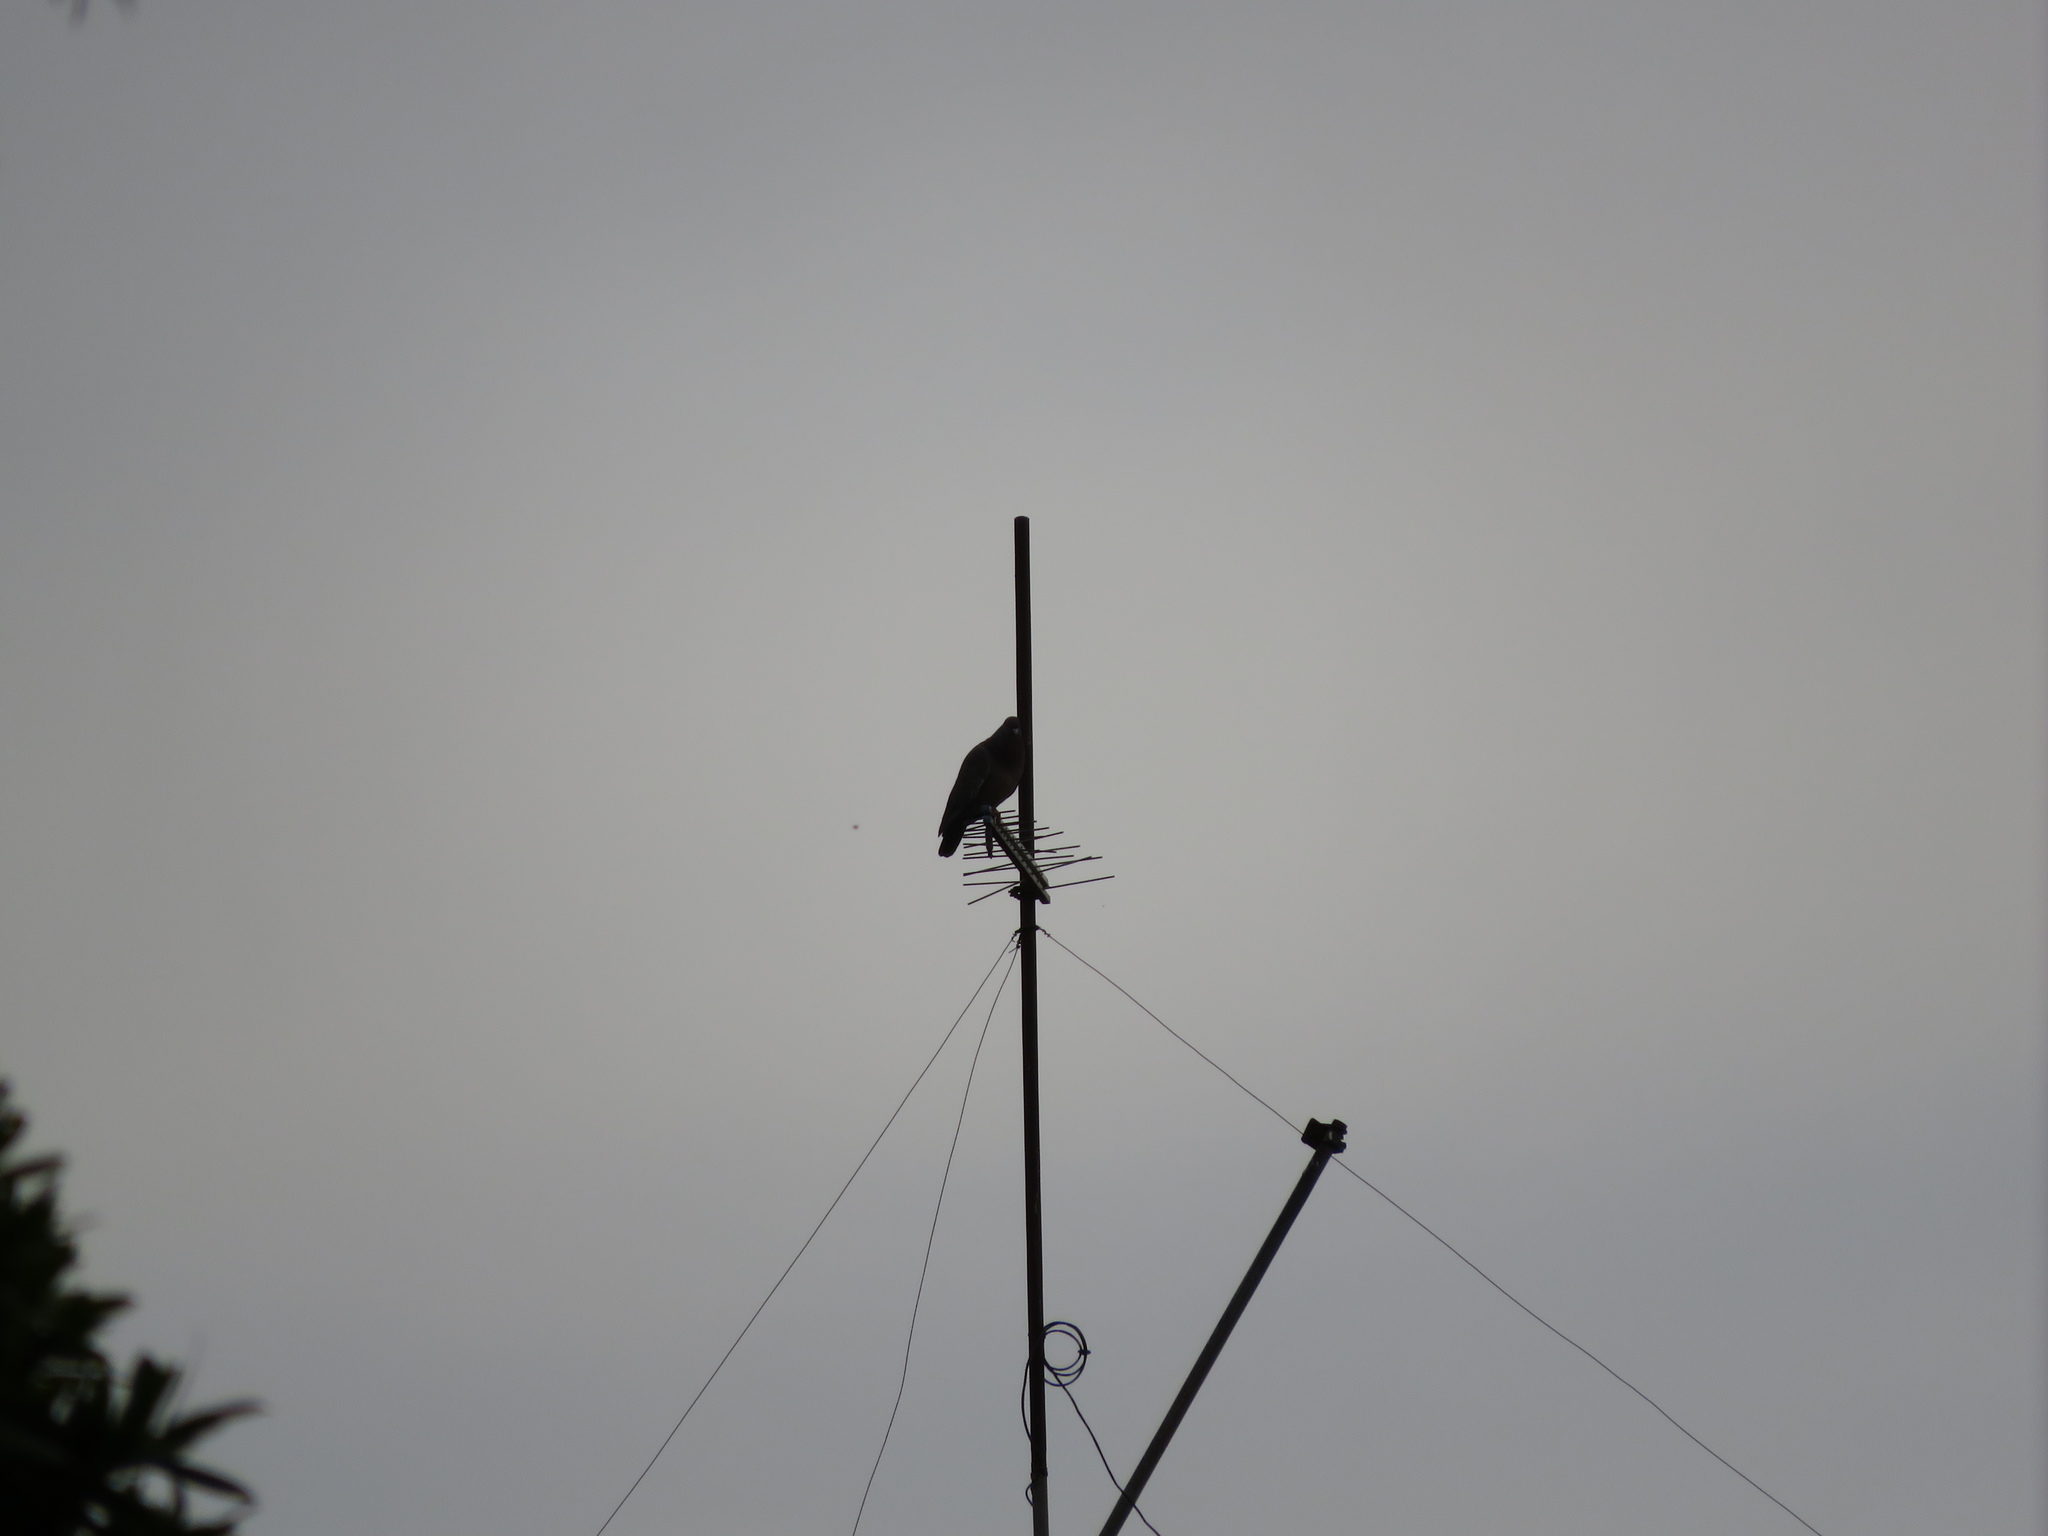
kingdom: Animalia
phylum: Chordata
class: Aves
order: Columbiformes
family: Columbidae
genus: Patagioenas
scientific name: Patagioenas picazuro
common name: Picazuro pigeon
